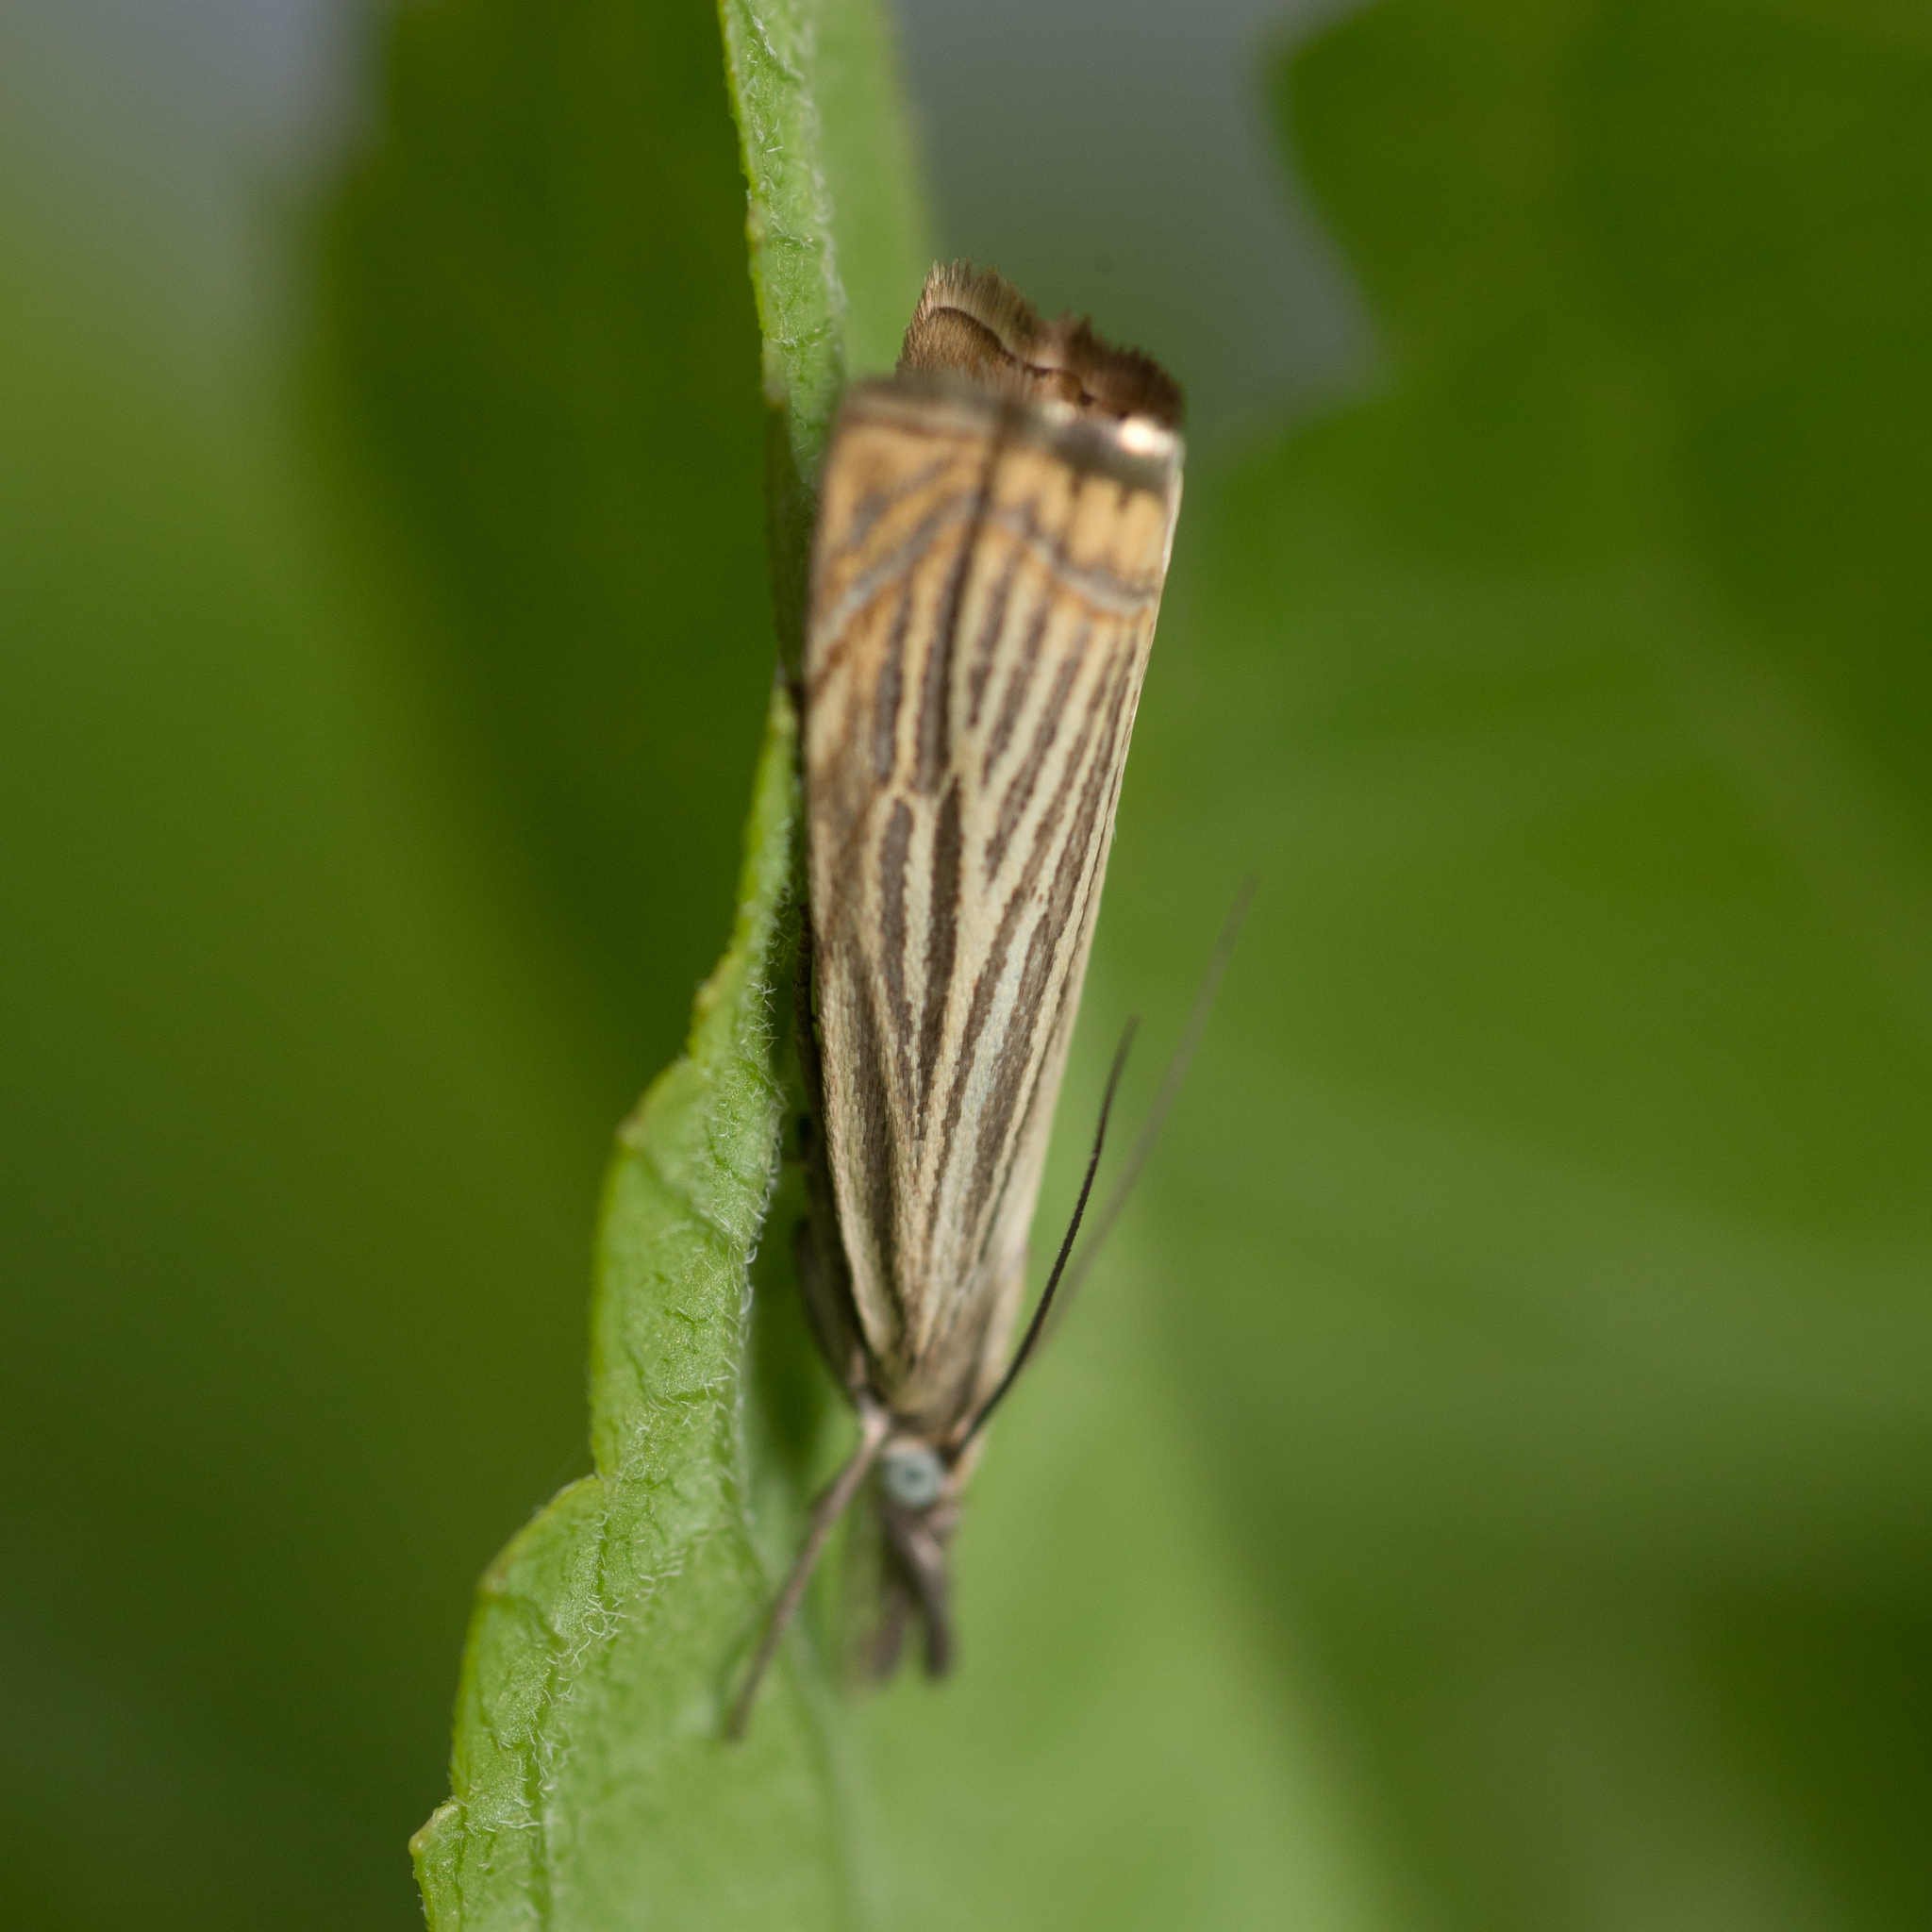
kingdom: Animalia
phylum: Arthropoda
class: Insecta
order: Lepidoptera
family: Crambidae
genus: Chrysoteuchia
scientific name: Chrysoteuchia culmella
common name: Garden grass-veneer
